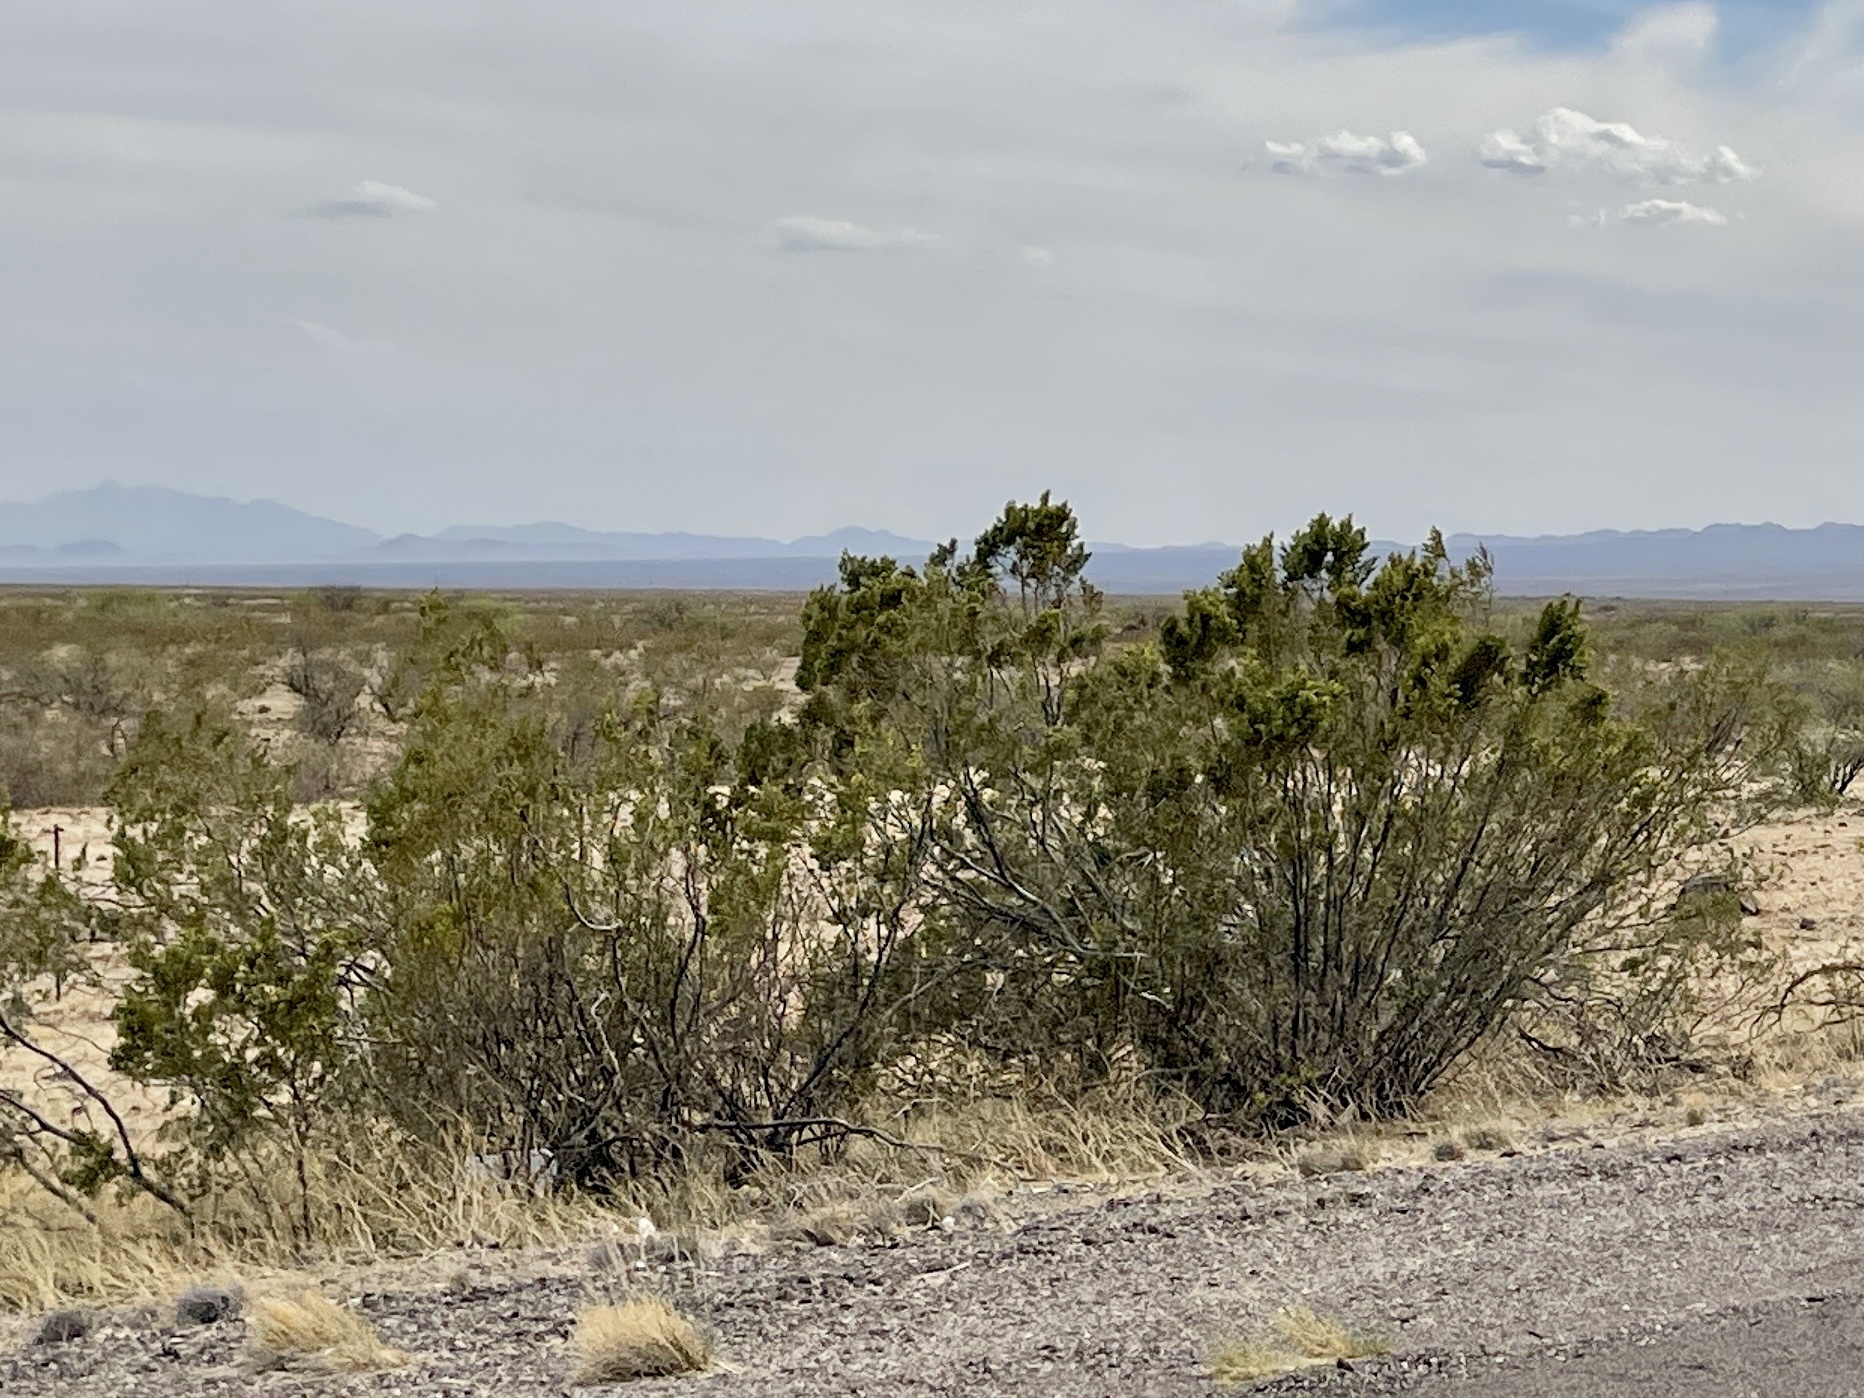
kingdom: Plantae
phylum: Tracheophyta
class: Magnoliopsida
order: Zygophyllales
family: Zygophyllaceae
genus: Larrea
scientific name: Larrea tridentata
